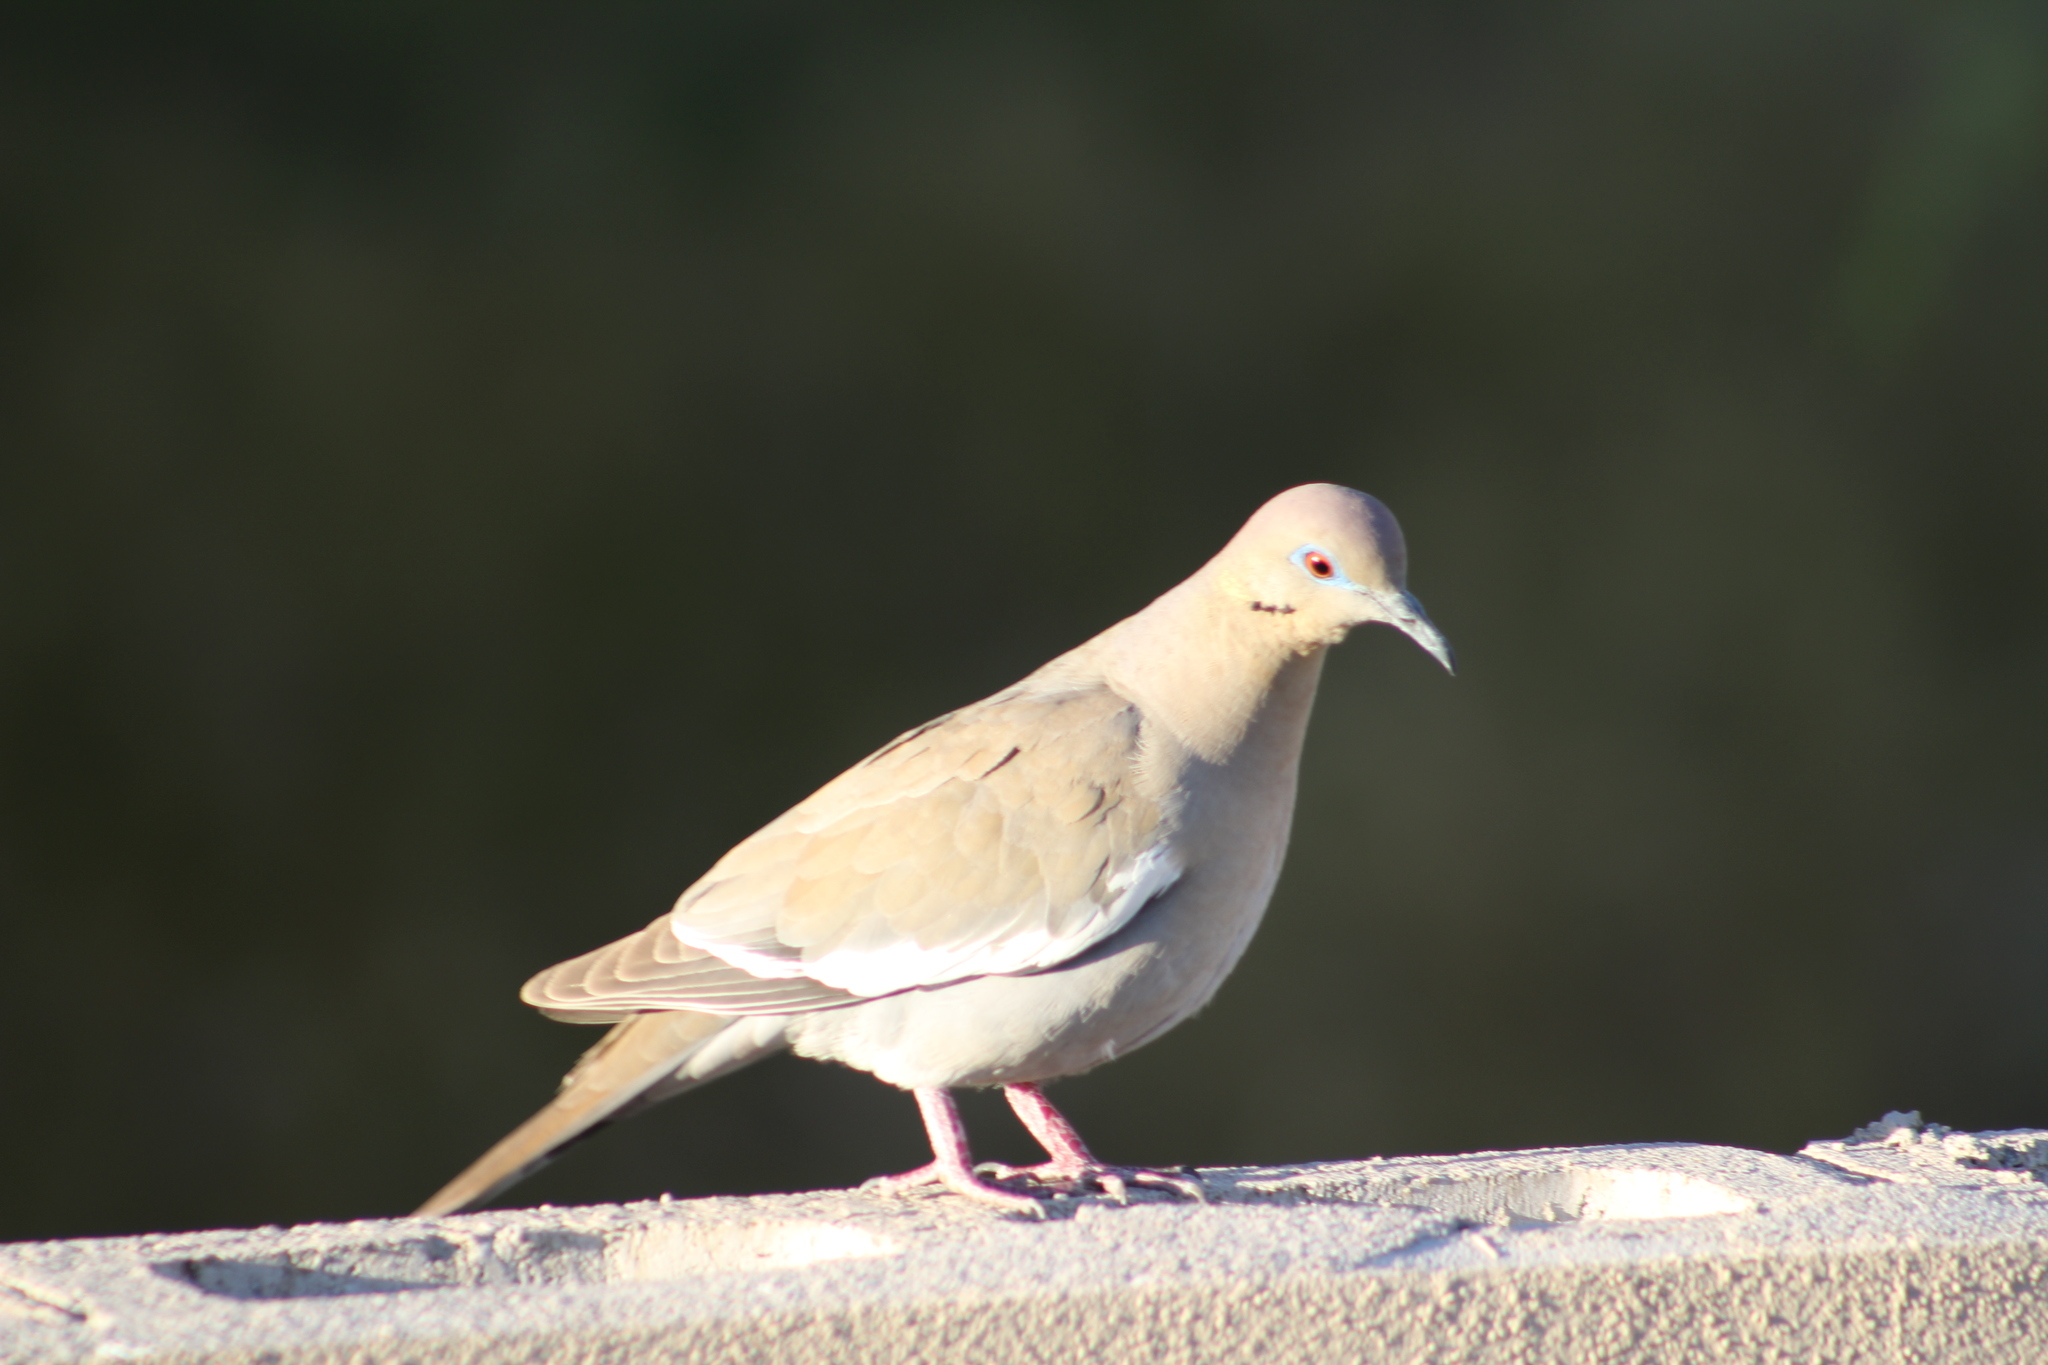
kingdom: Animalia
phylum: Chordata
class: Aves
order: Columbiformes
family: Columbidae
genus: Zenaida
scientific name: Zenaida asiatica
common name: White-winged dove
